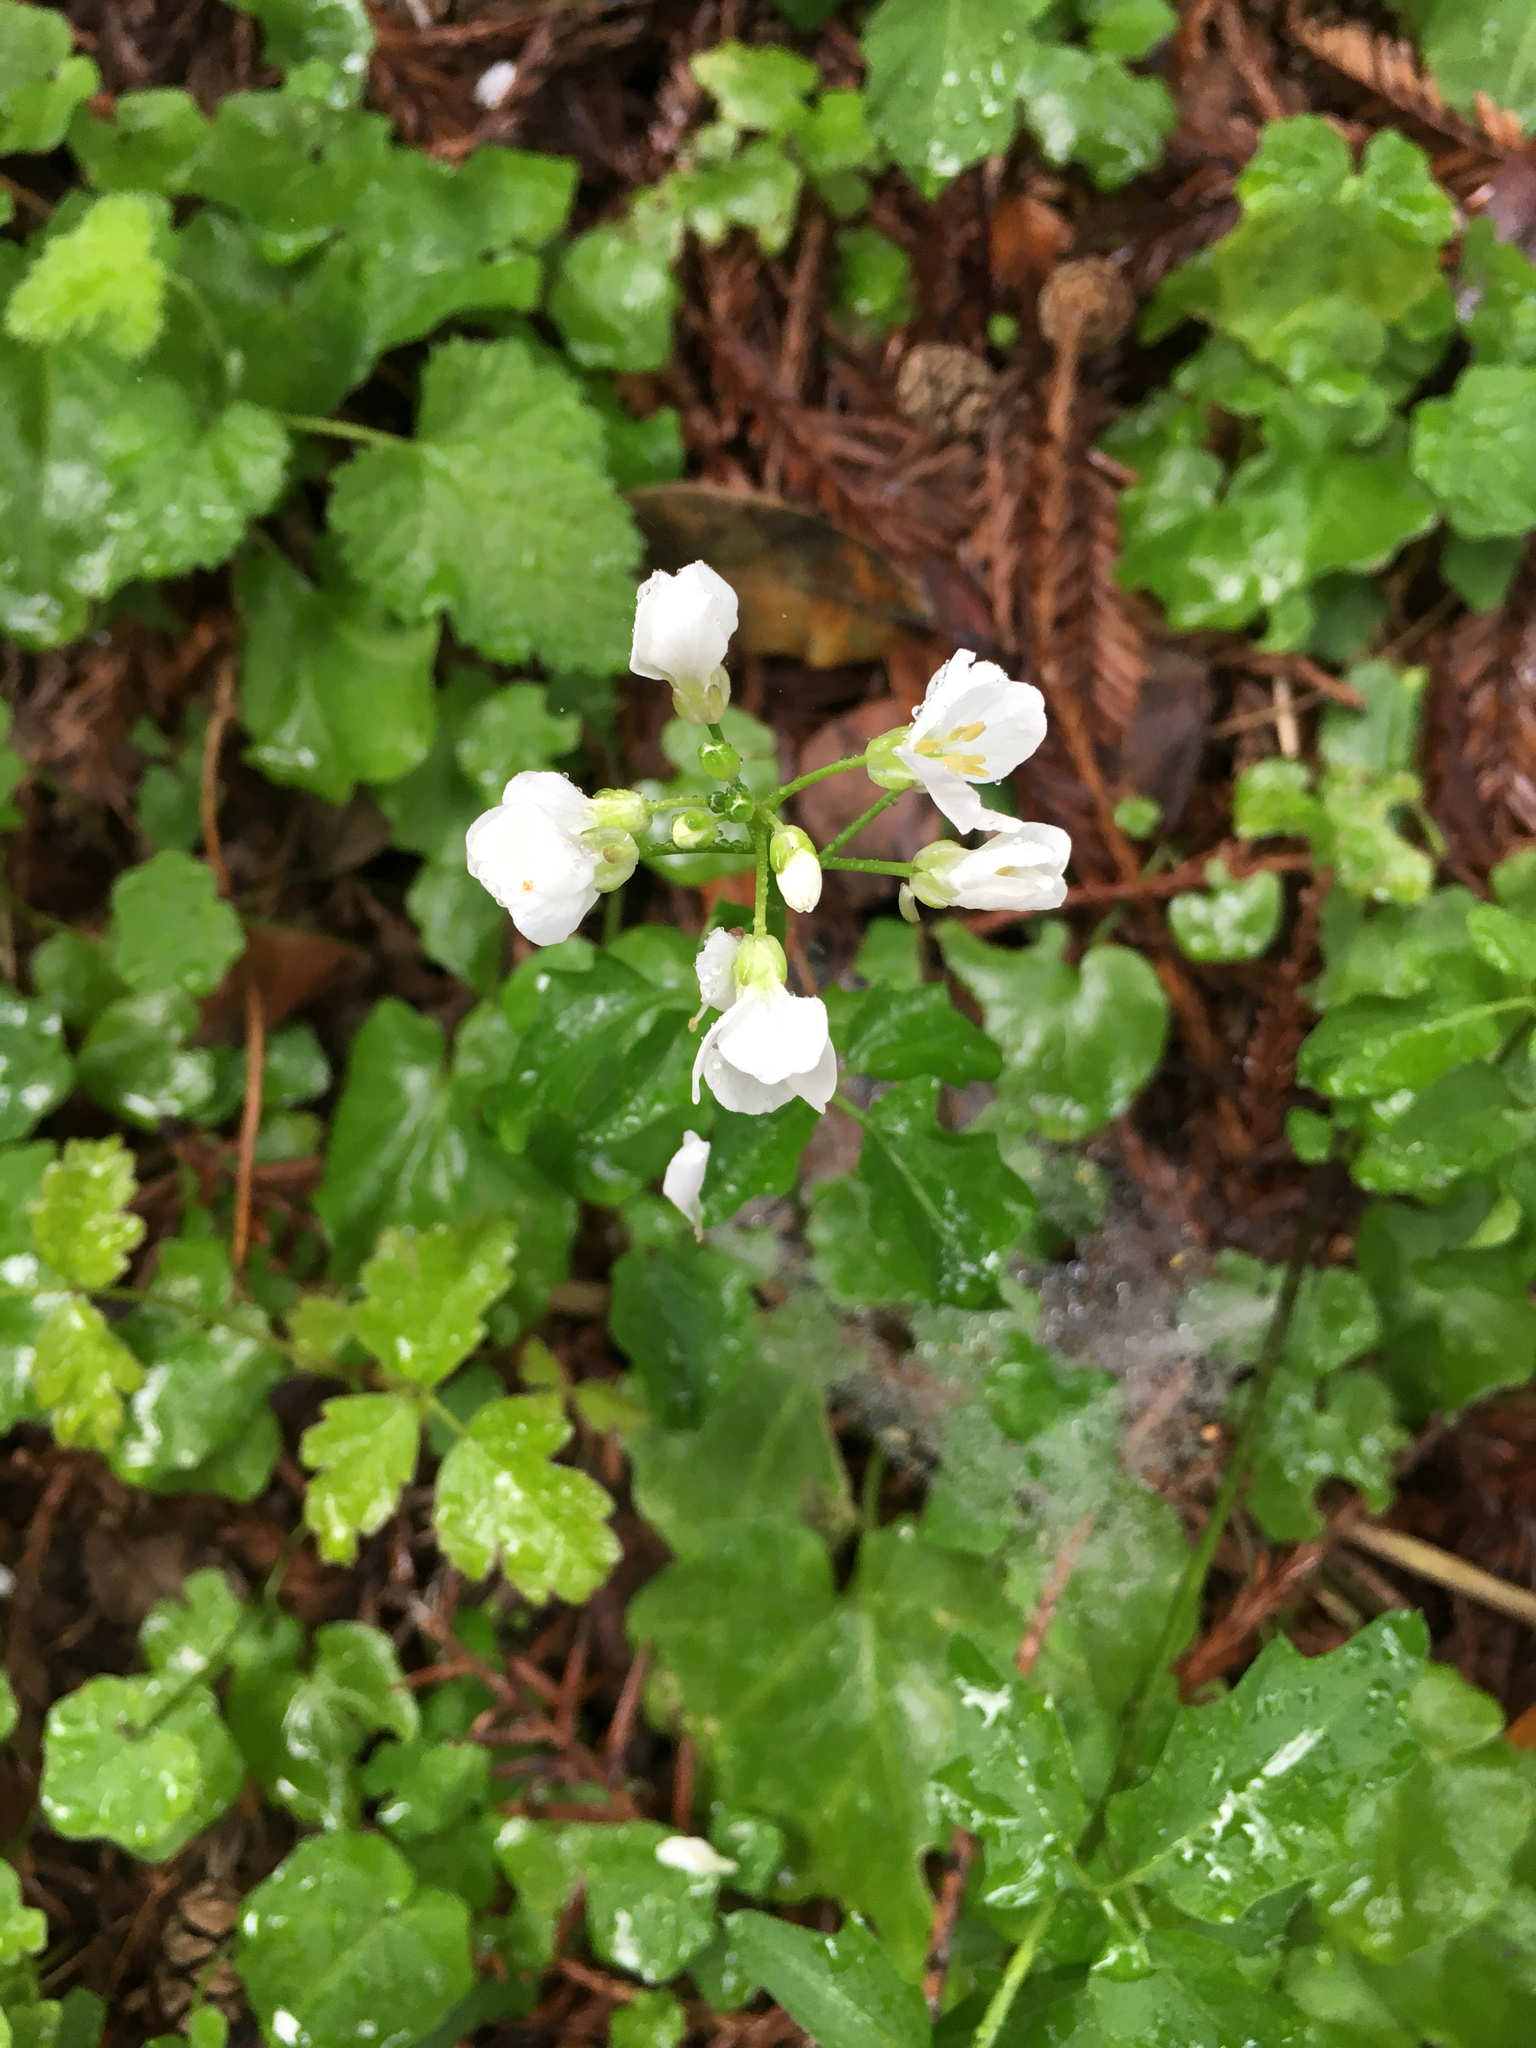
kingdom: Plantae
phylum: Tracheophyta
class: Magnoliopsida
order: Brassicales
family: Brassicaceae
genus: Cardamine
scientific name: Cardamine californica
